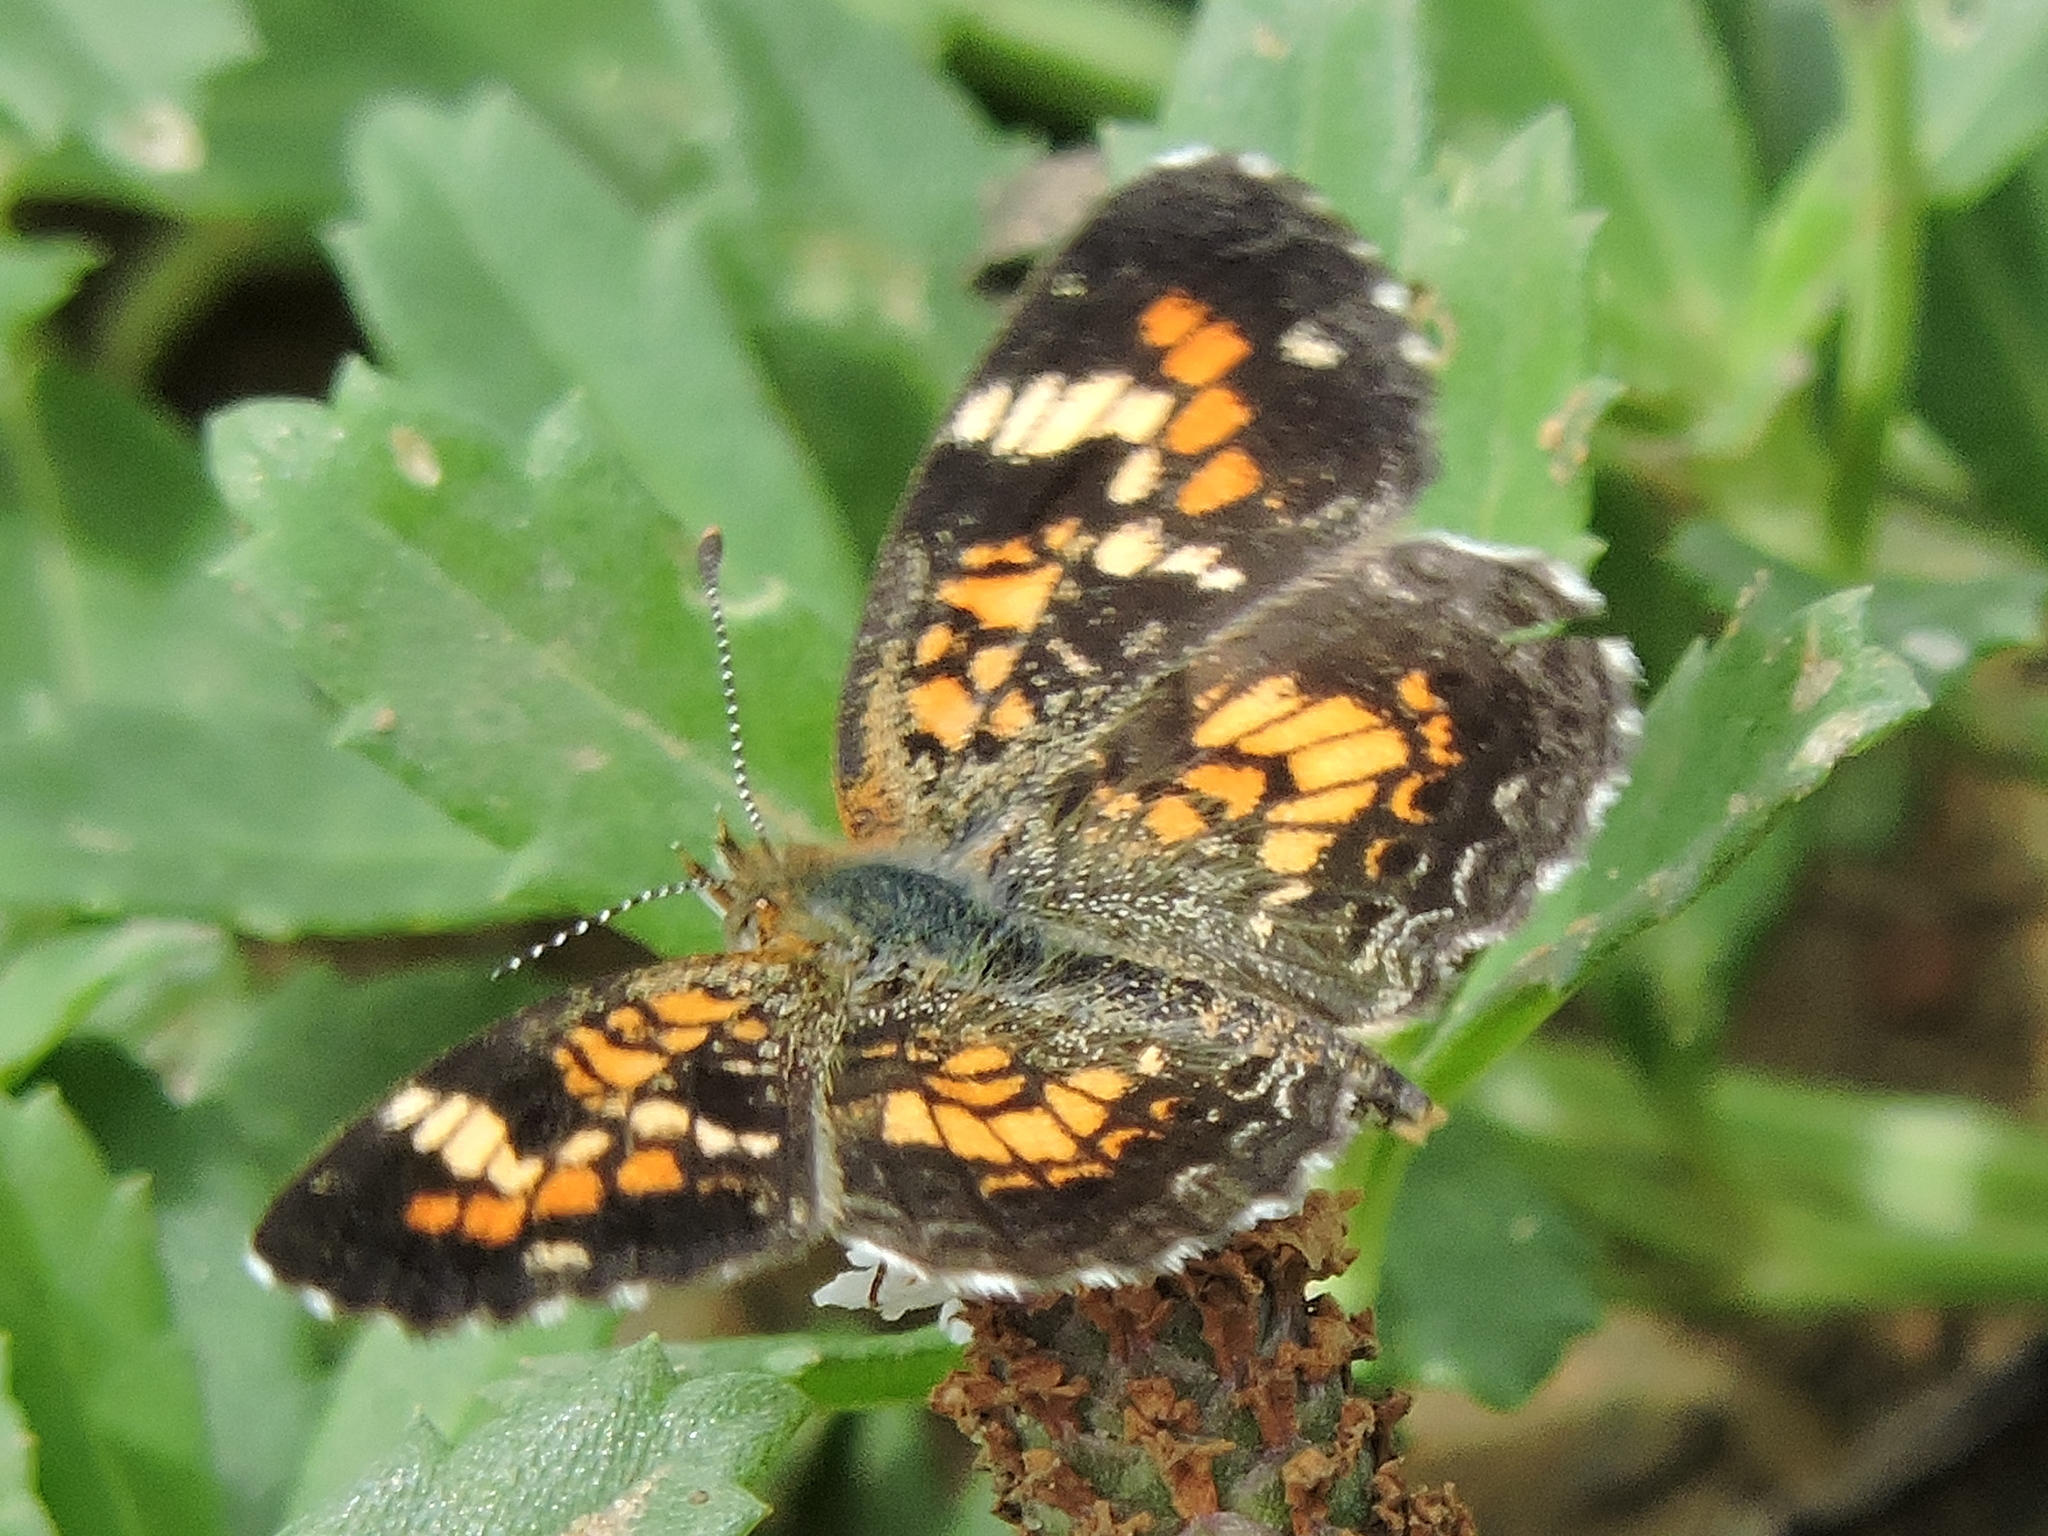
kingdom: Animalia
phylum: Arthropoda
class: Insecta
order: Lepidoptera
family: Nymphalidae
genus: Phyciodes
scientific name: Phyciodes phaon
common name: Phaon crescent
